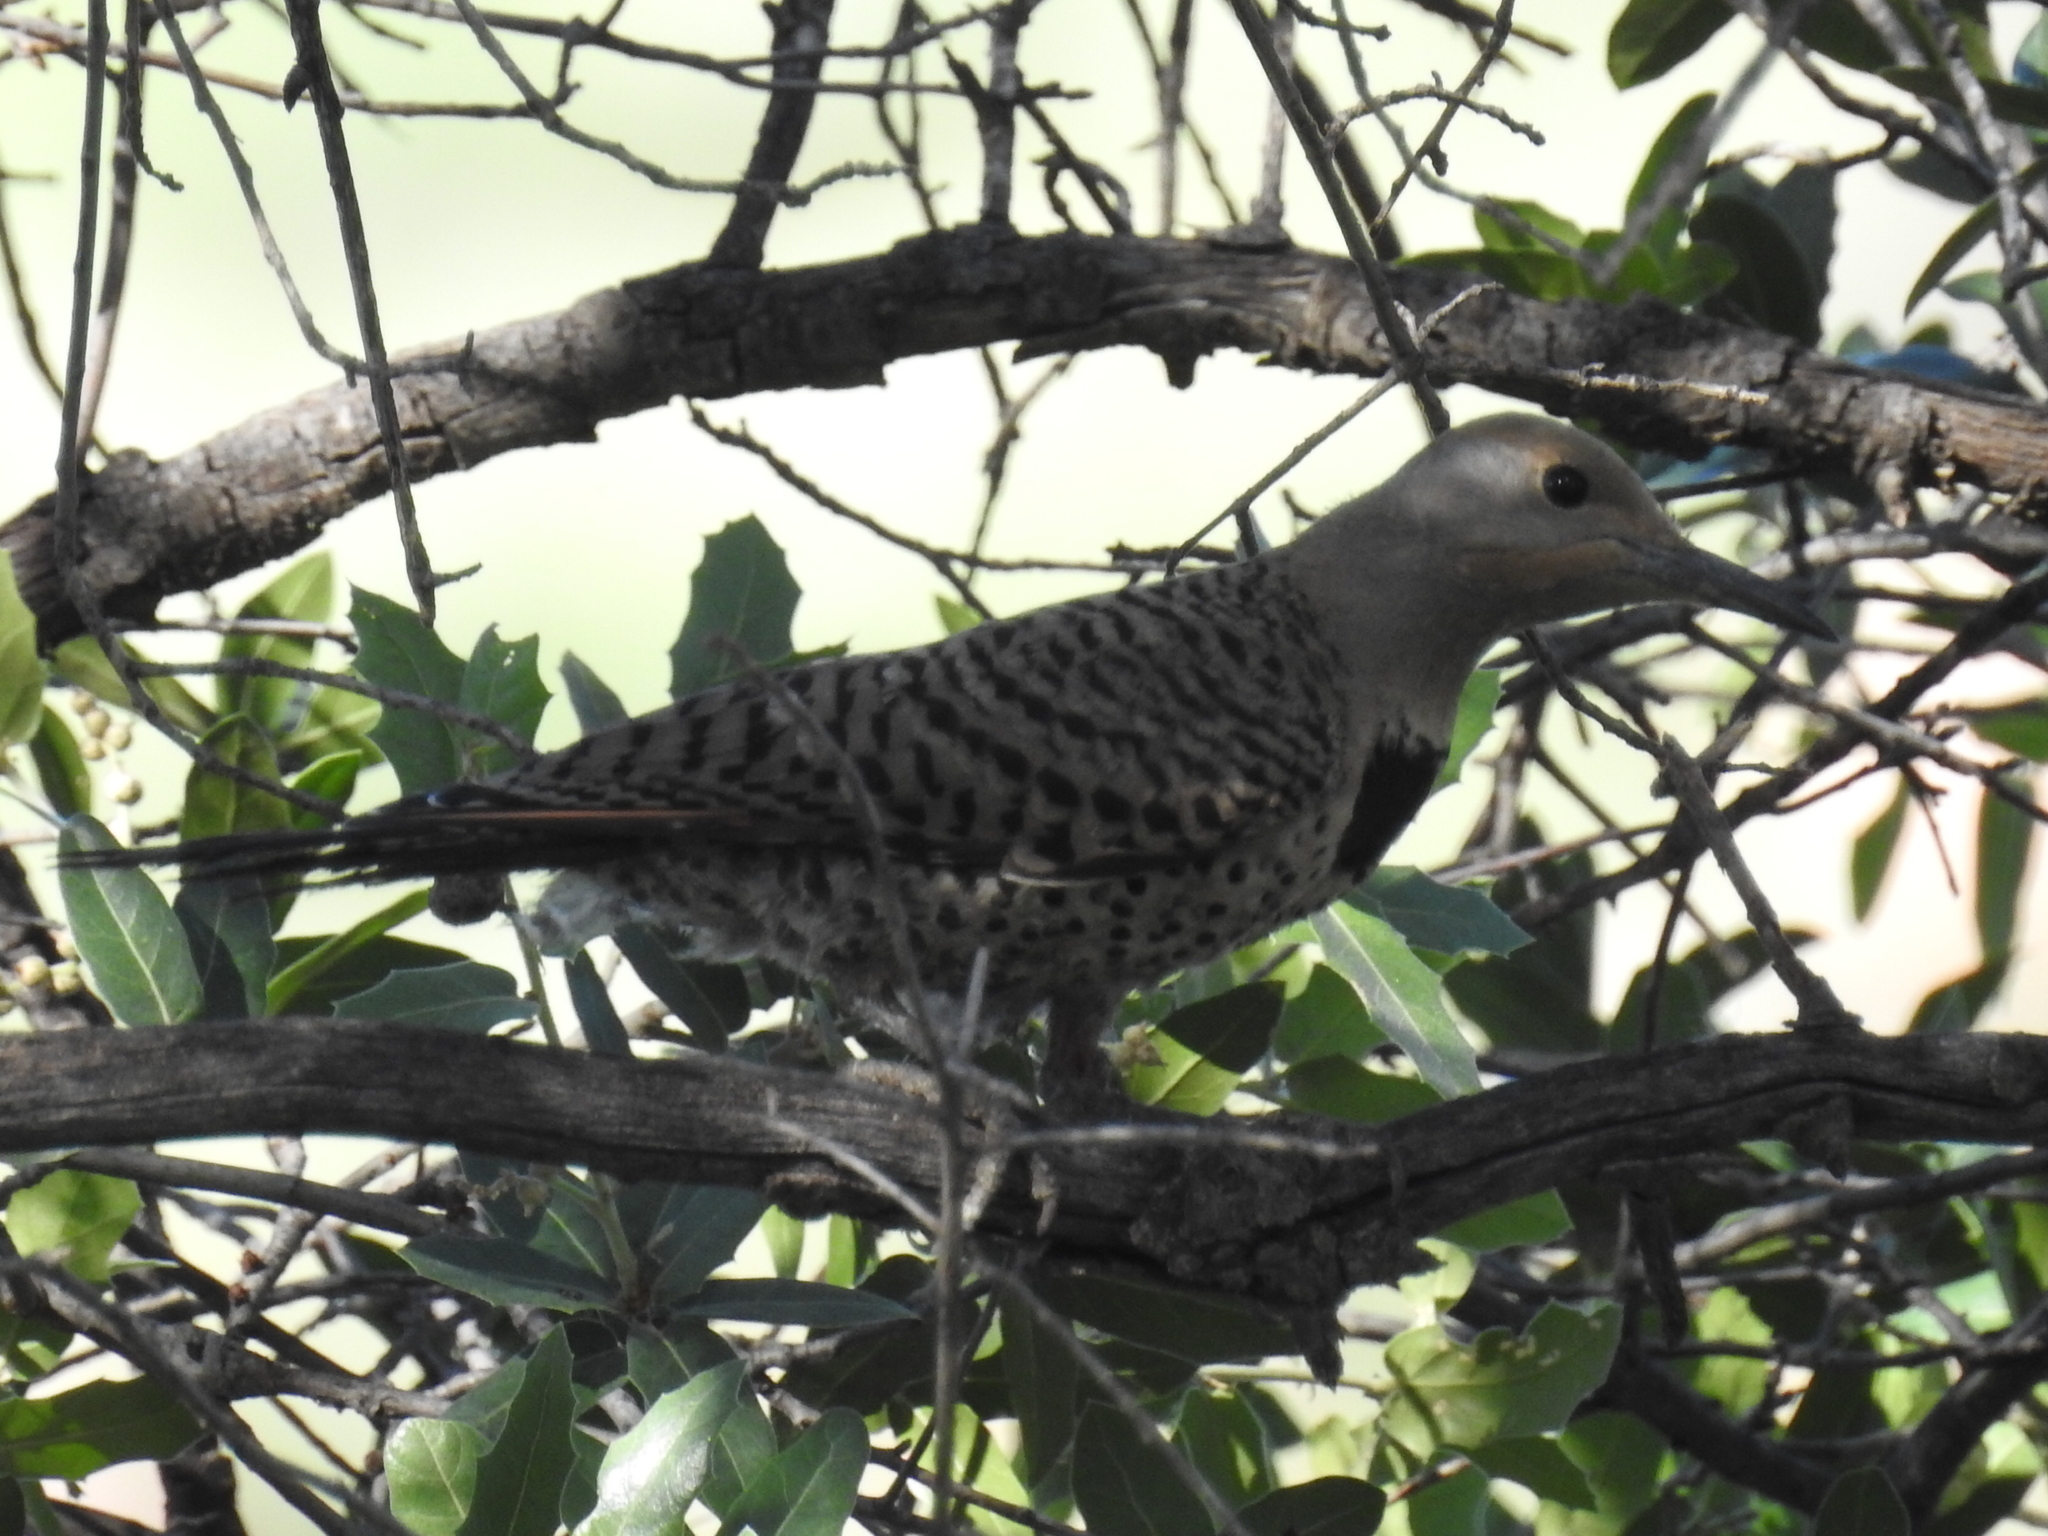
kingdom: Animalia
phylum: Chordata
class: Aves
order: Piciformes
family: Picidae
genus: Colaptes
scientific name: Colaptes auratus
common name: Northern flicker
